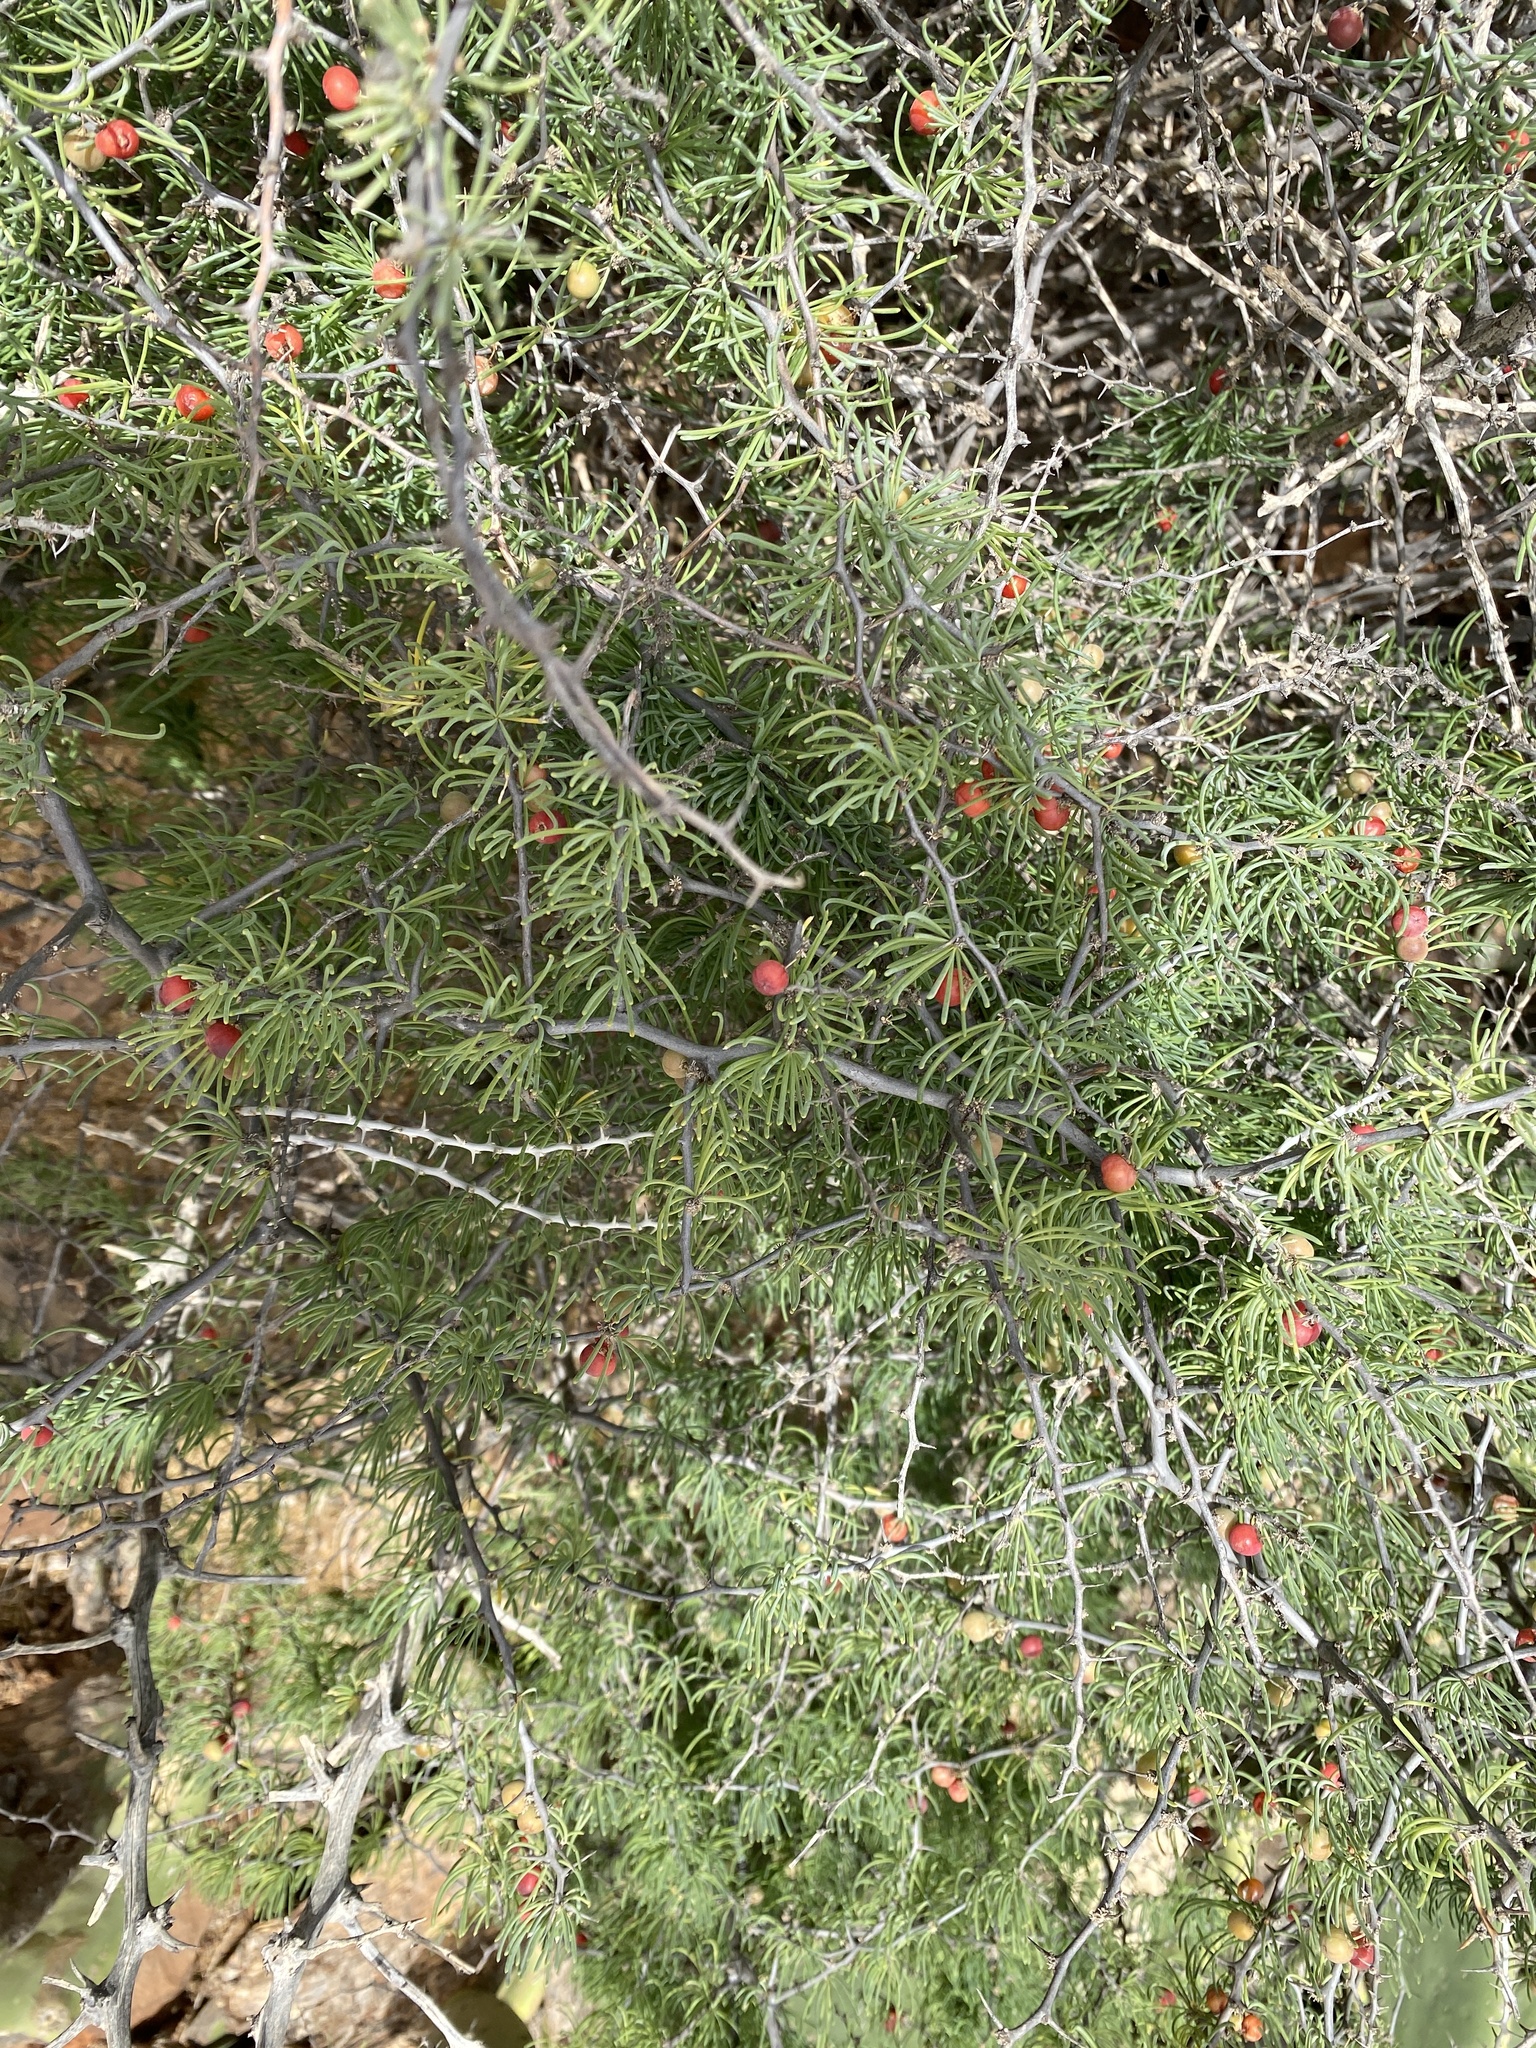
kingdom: Plantae
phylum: Tracheophyta
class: Liliopsida
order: Asparagales
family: Asparagaceae
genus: Asparagus
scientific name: Asparagus pastorianus
